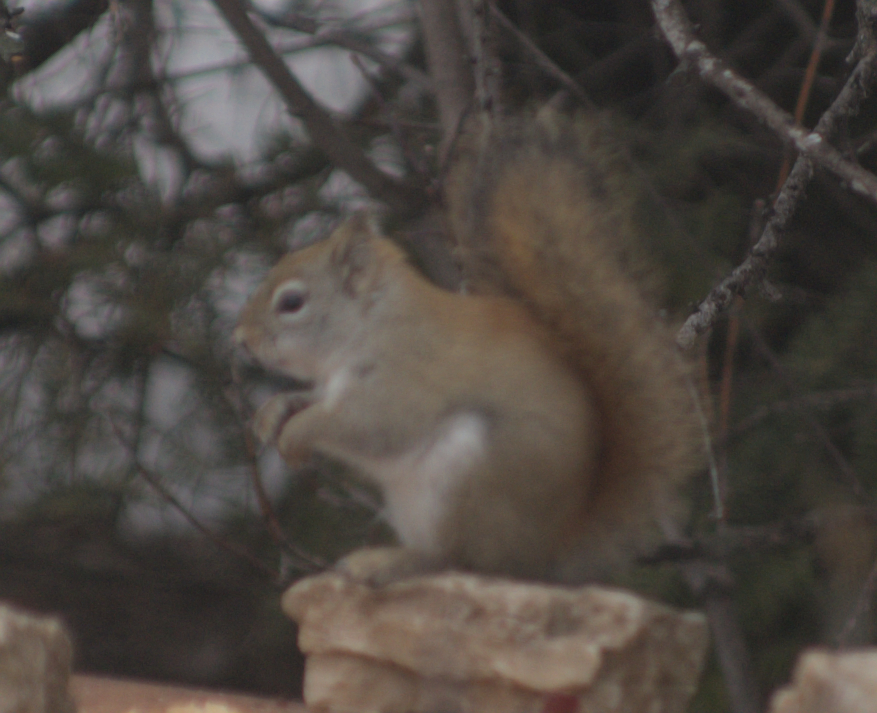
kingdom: Animalia
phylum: Chordata
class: Mammalia
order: Rodentia
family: Sciuridae
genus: Tamiasciurus
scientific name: Tamiasciurus hudsonicus
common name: Red squirrel
